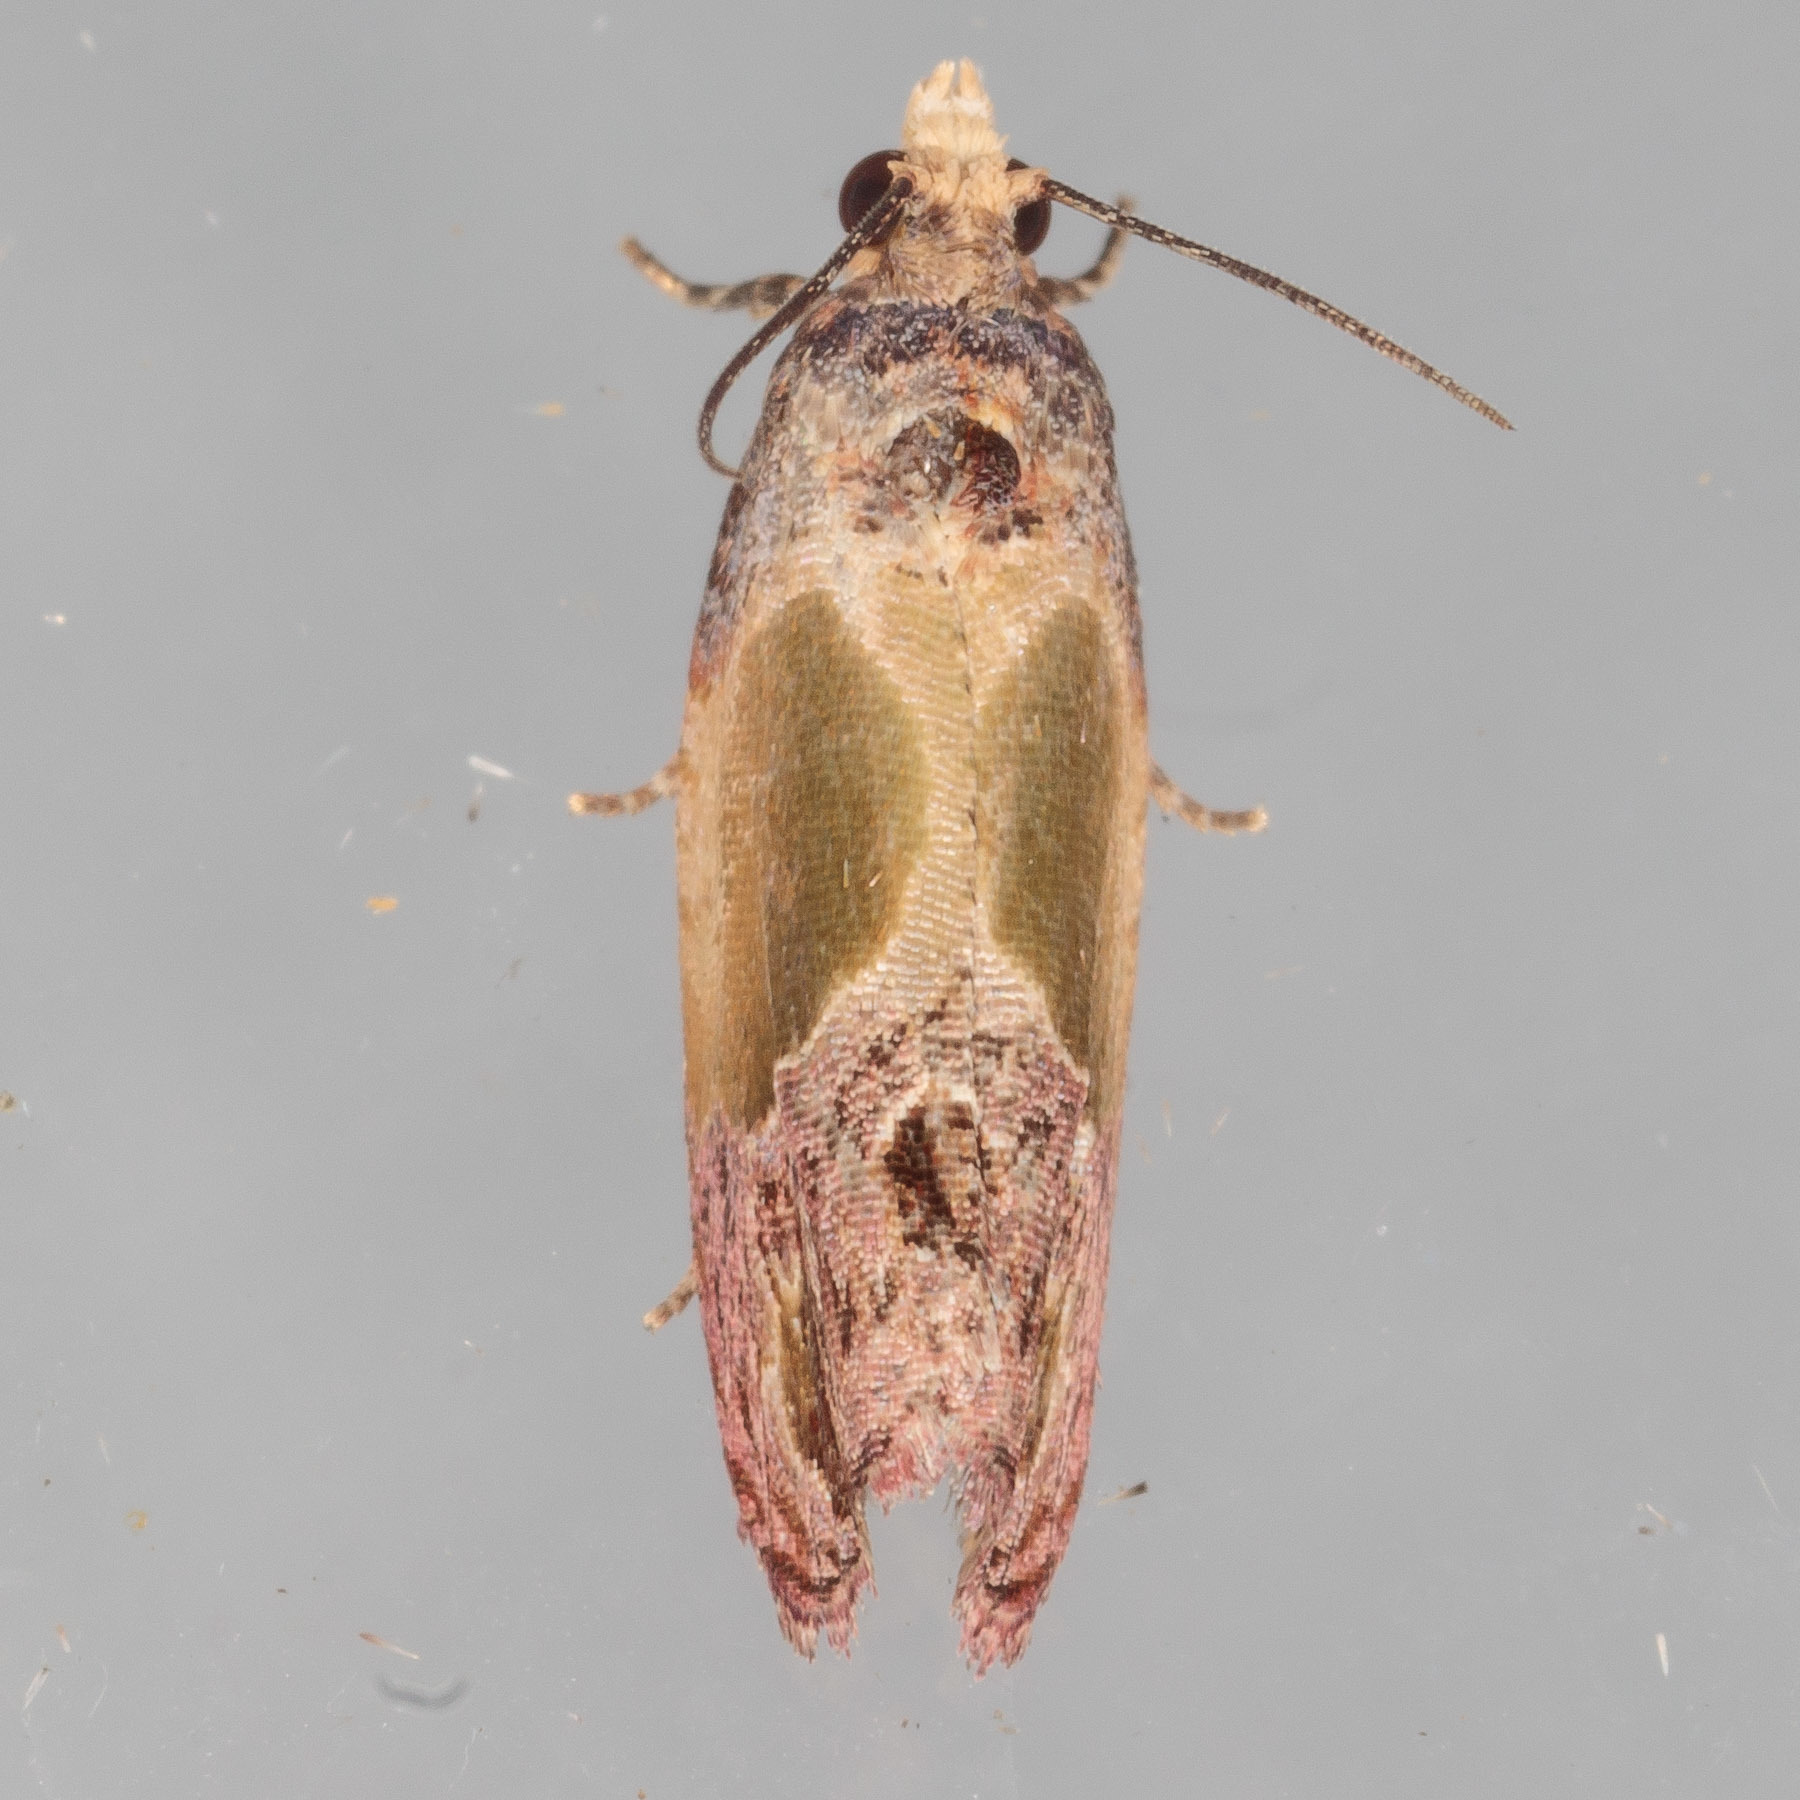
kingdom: Animalia
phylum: Arthropoda
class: Insecta
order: Lepidoptera
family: Tortricidae
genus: Eumarozia
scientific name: Eumarozia malachitana
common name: Sculptured moth
